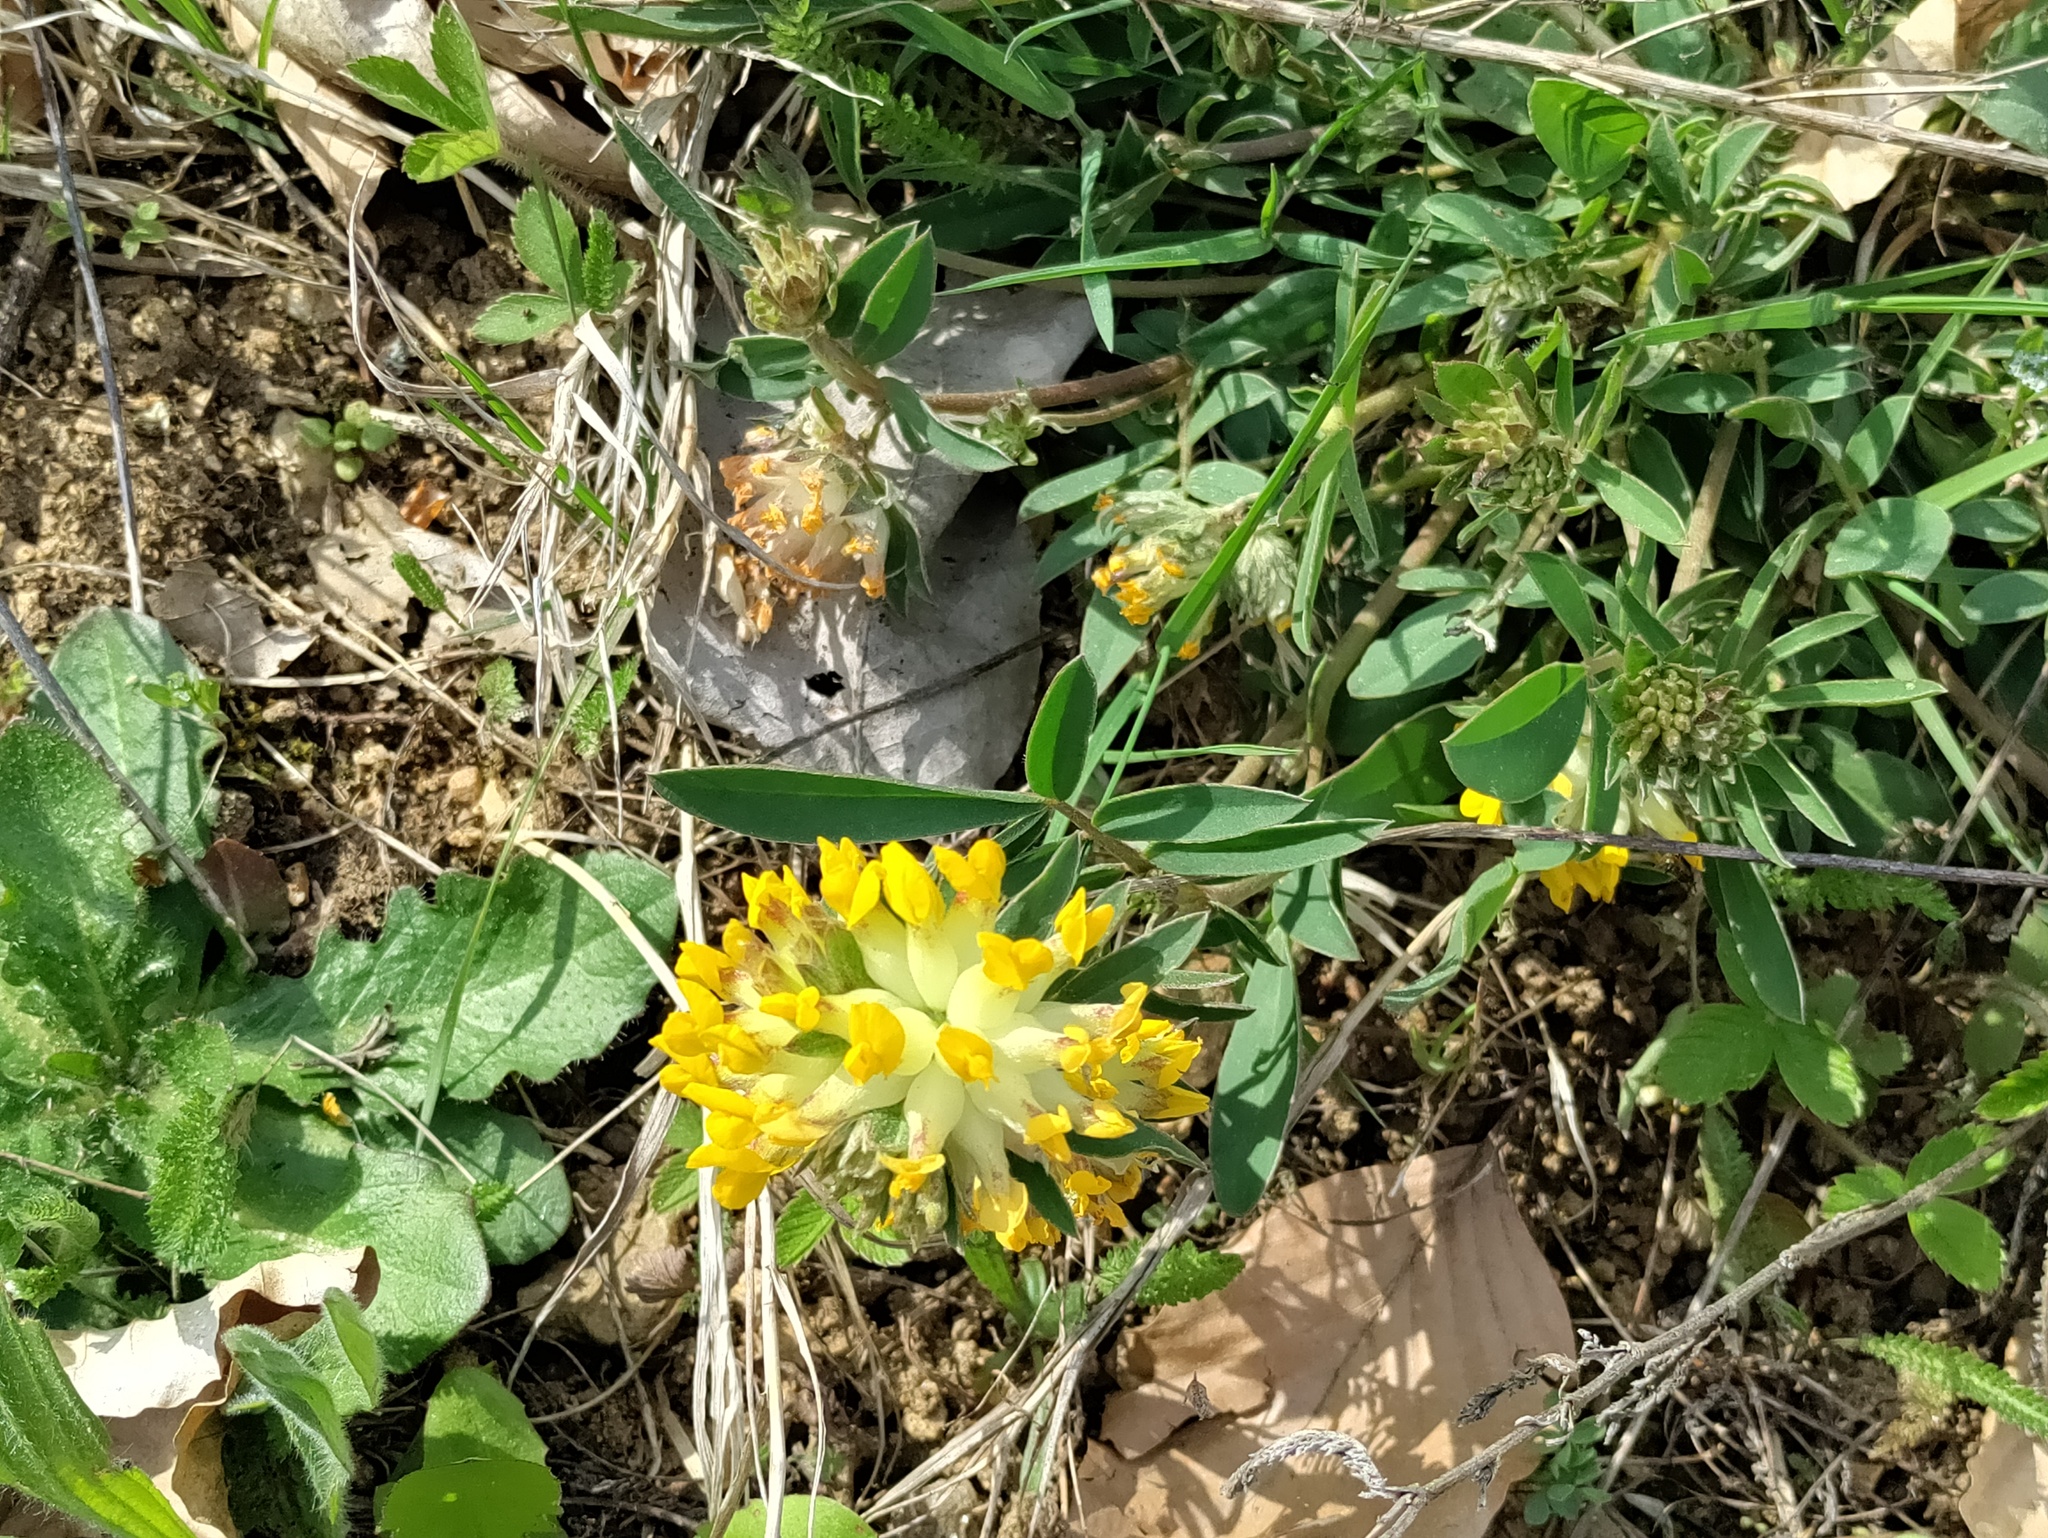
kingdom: Plantae
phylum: Tracheophyta
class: Magnoliopsida
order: Fabales
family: Fabaceae
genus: Anthyllis
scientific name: Anthyllis vulneraria
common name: Kidney vetch
